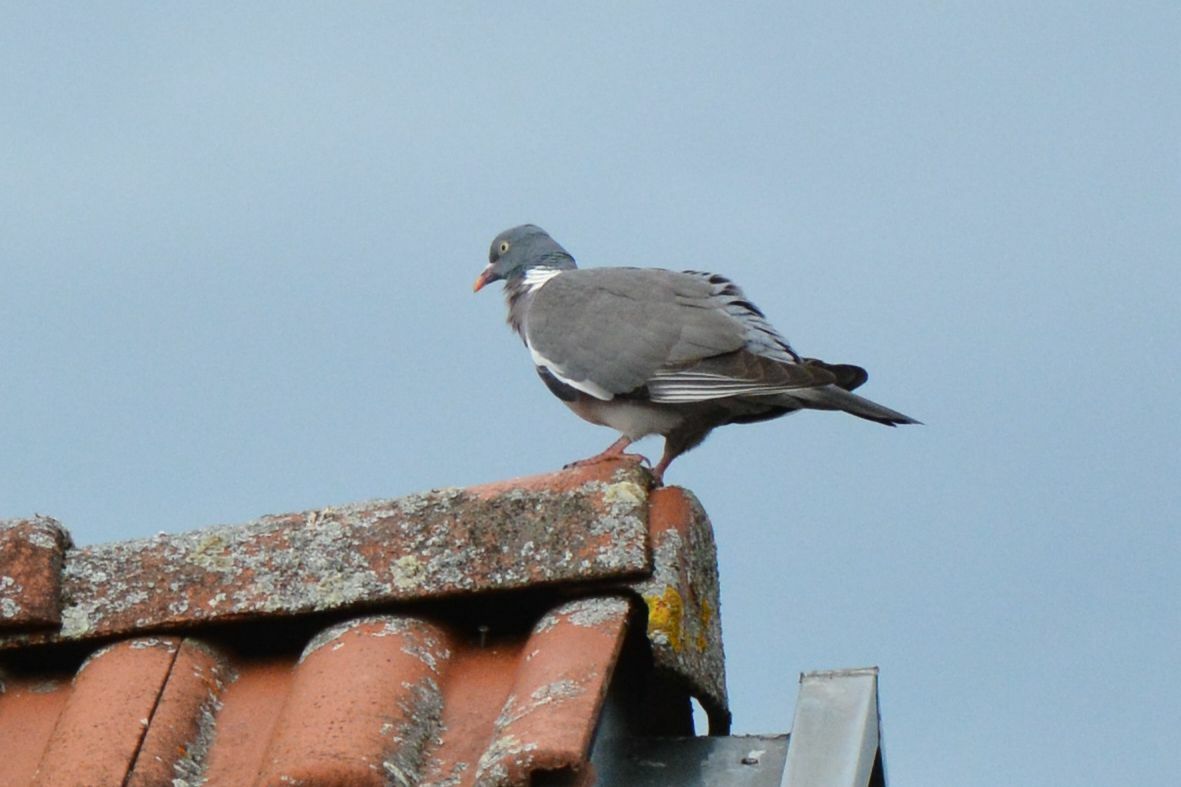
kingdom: Animalia
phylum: Chordata
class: Aves
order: Columbiformes
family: Columbidae
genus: Columba
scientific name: Columba palumbus
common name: Common wood pigeon
